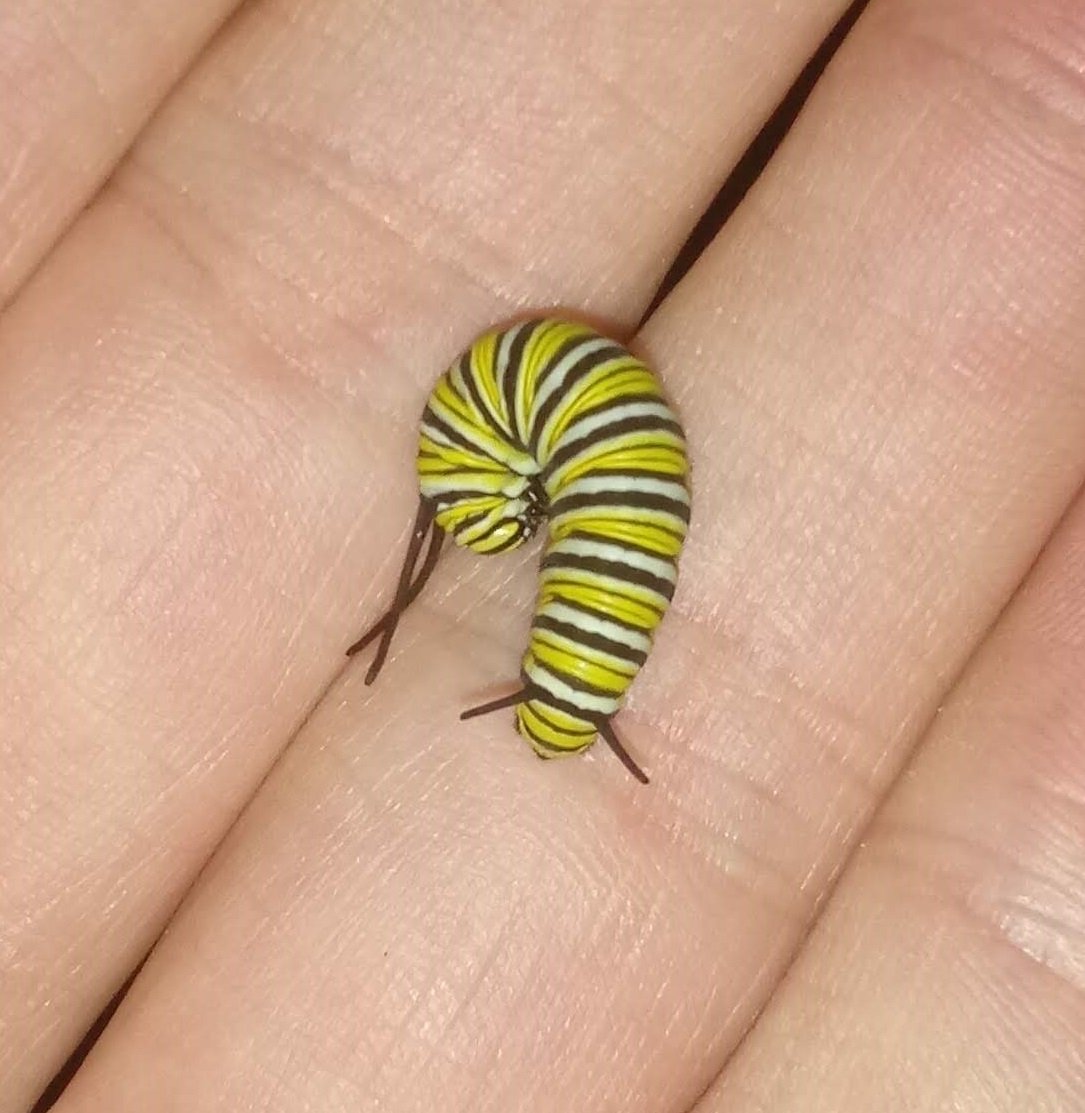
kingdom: Animalia
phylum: Arthropoda
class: Insecta
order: Lepidoptera
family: Nymphalidae
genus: Danaus
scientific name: Danaus plexippus
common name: Monarch
